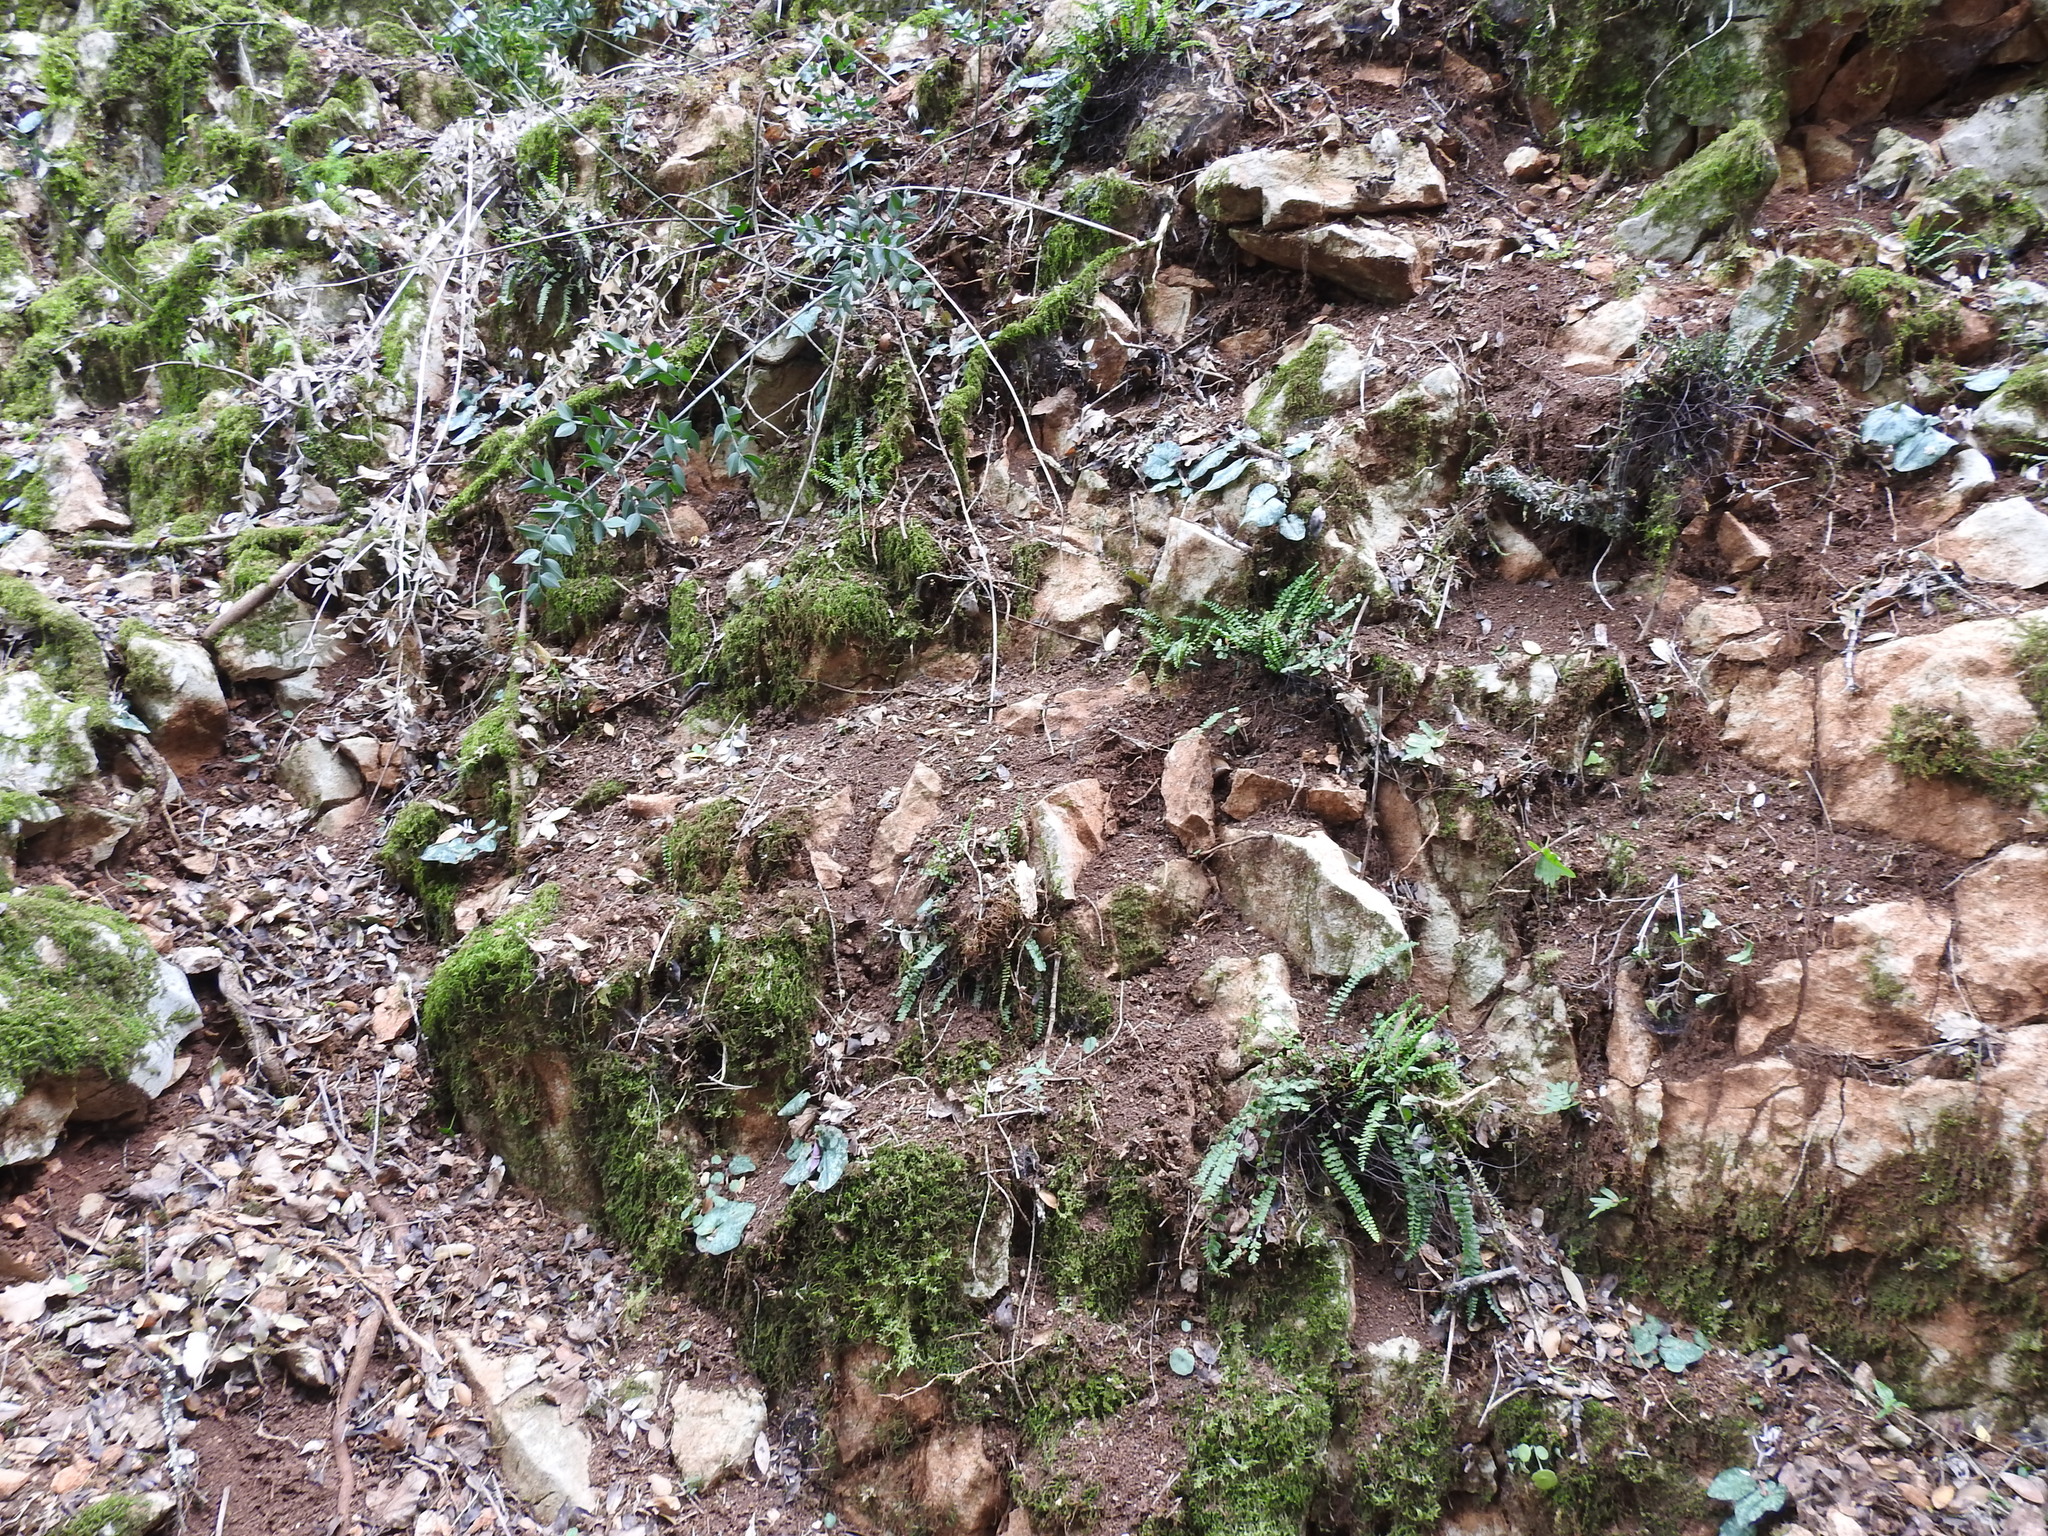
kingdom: Plantae
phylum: Tracheophyta
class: Magnoliopsida
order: Ericales
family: Primulaceae
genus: Cyclamen
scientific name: Cyclamen balearicum
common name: Majorca cyclamen
